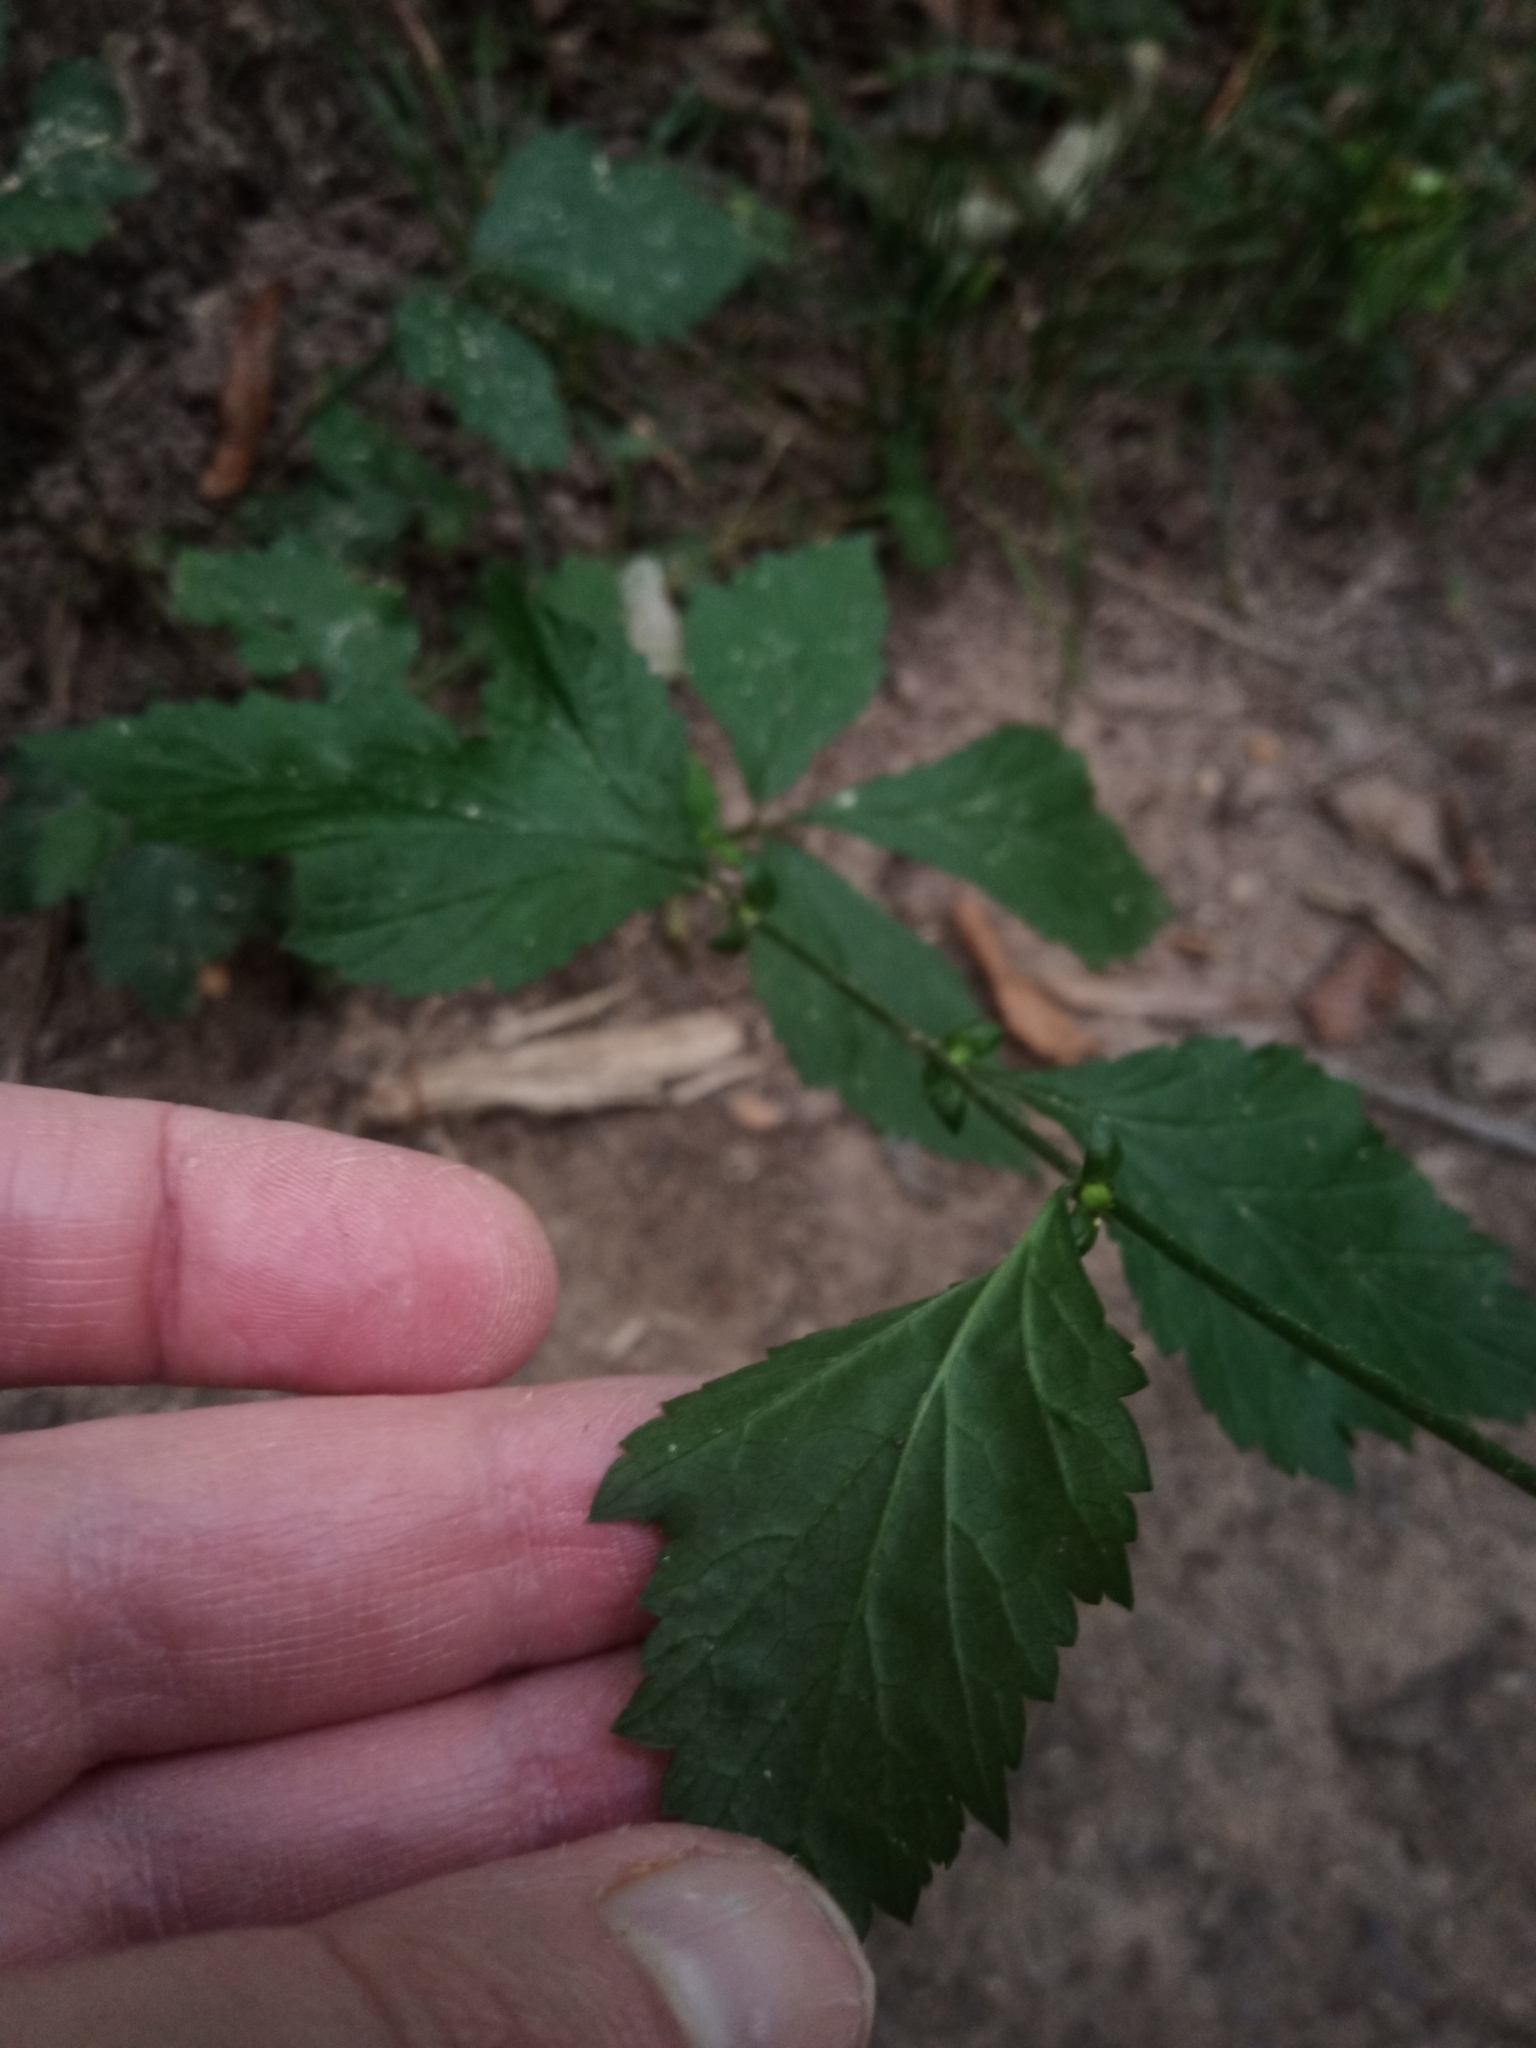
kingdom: Plantae
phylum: Tracheophyta
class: Magnoliopsida
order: Rosales
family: Rosaceae
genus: Geum
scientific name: Geum canadense
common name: White avens
